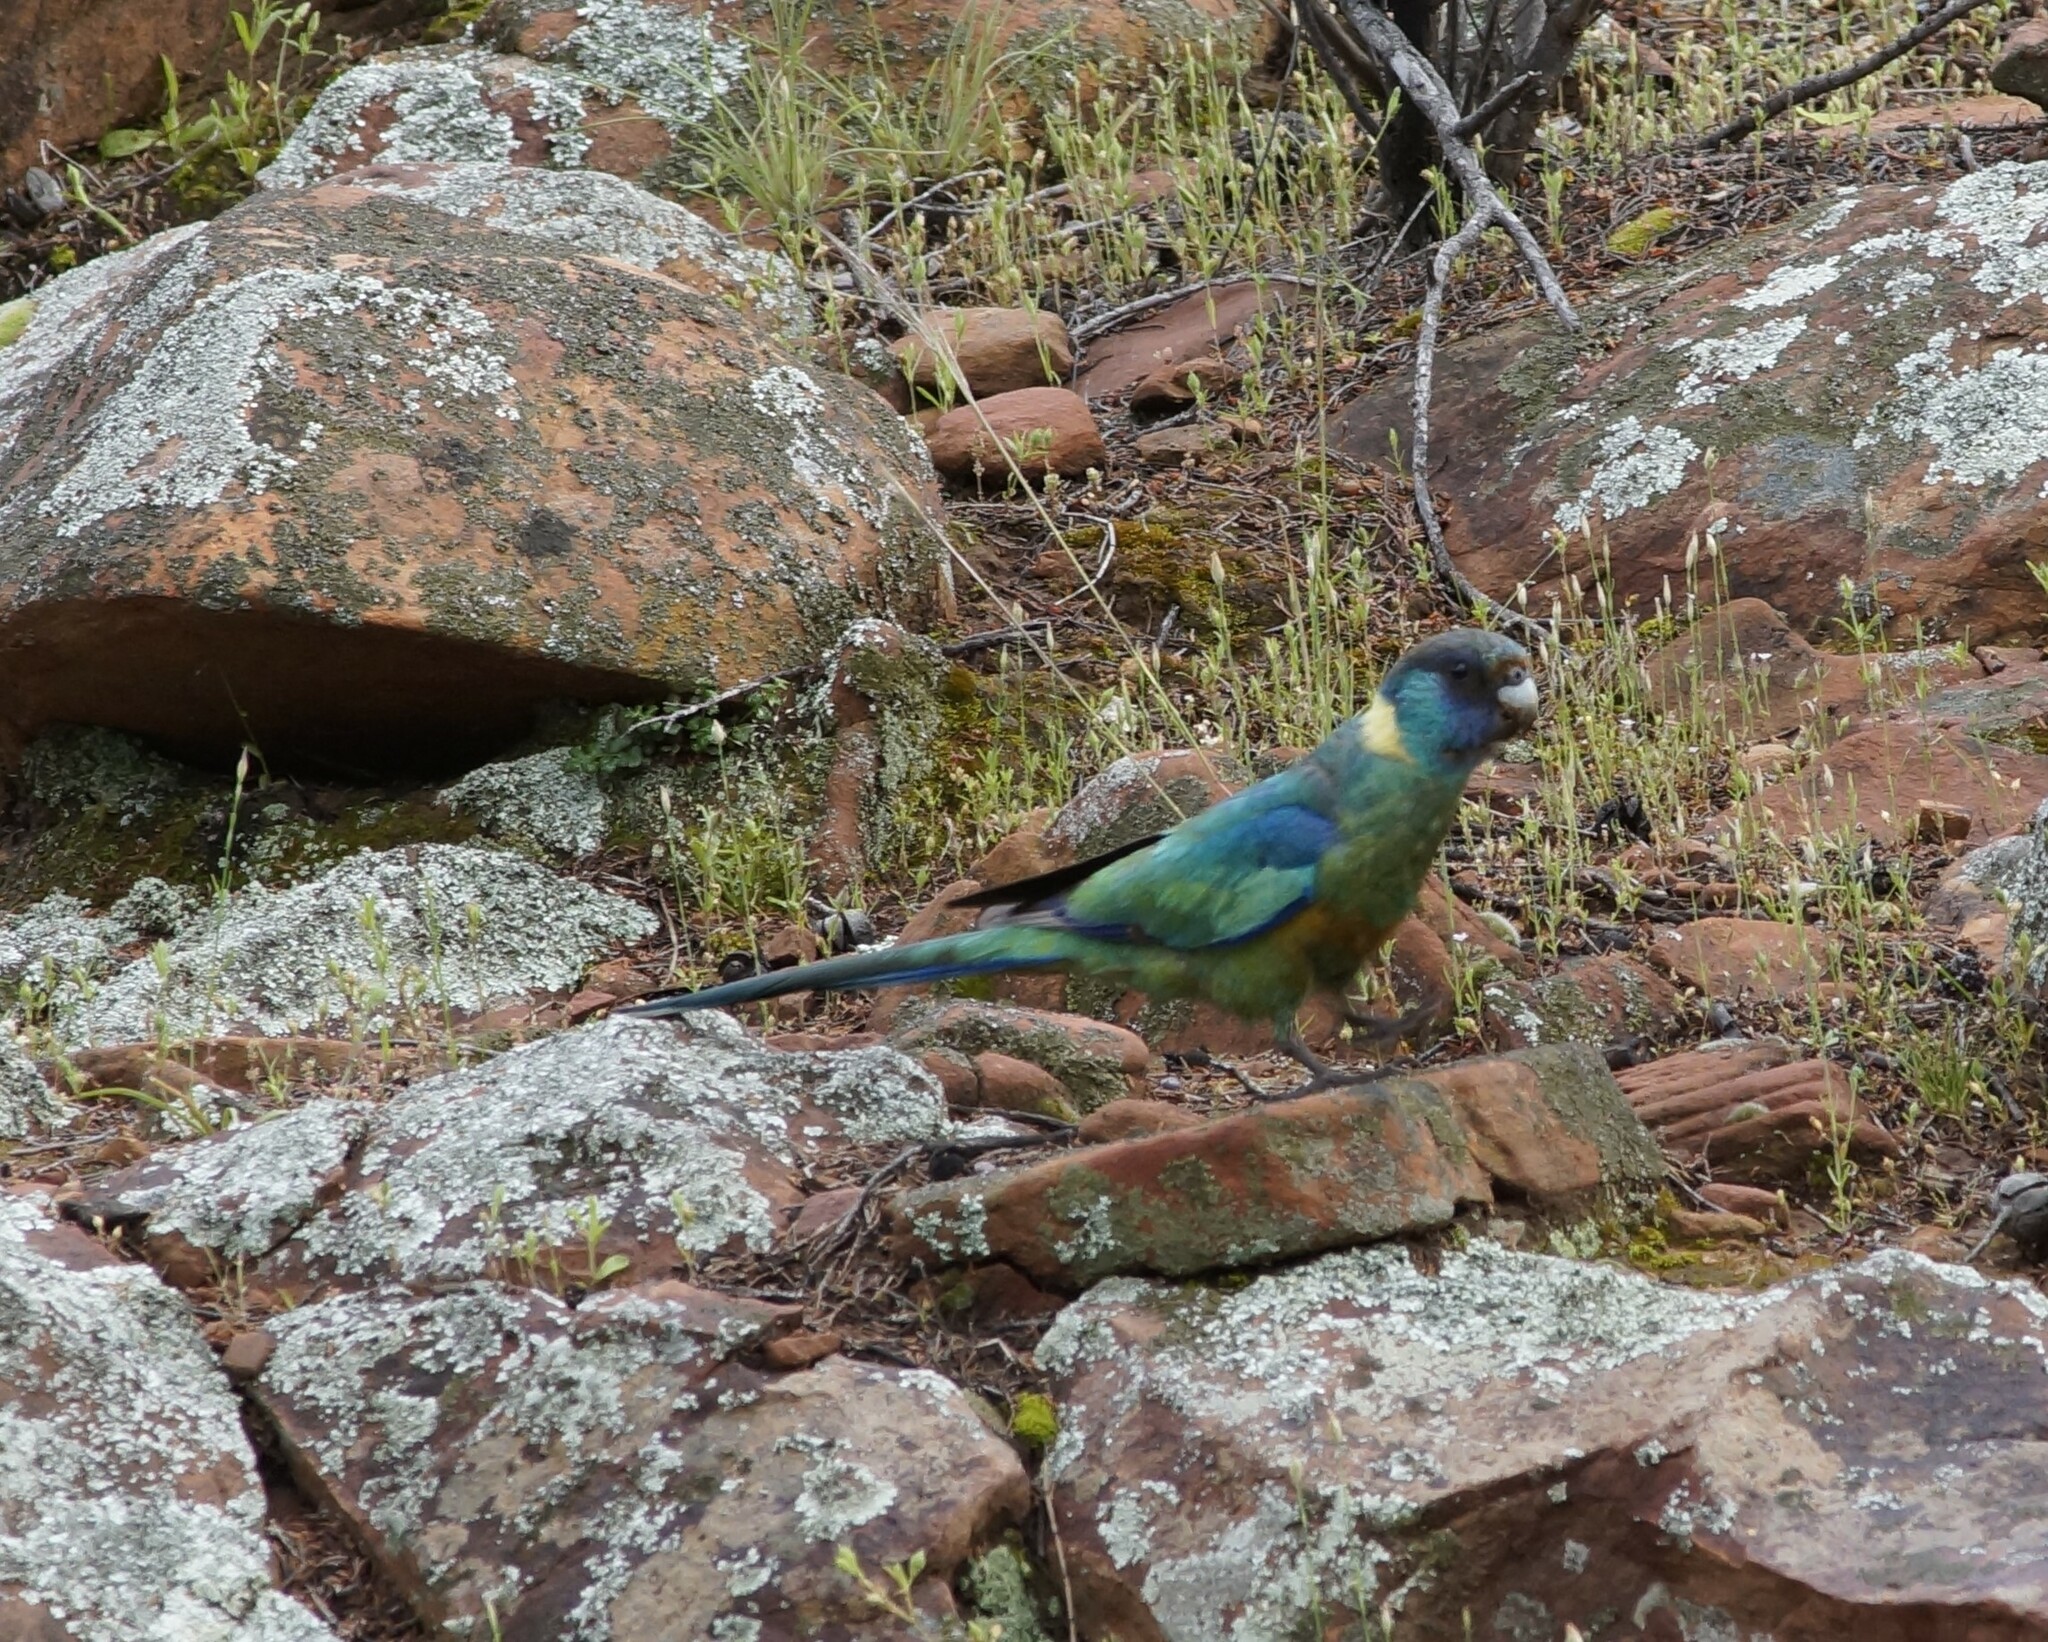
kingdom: Animalia
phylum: Chordata
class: Aves
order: Psittaciformes
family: Psittacidae
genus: Barnardius
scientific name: Barnardius zonarius
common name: Australian ringneck
